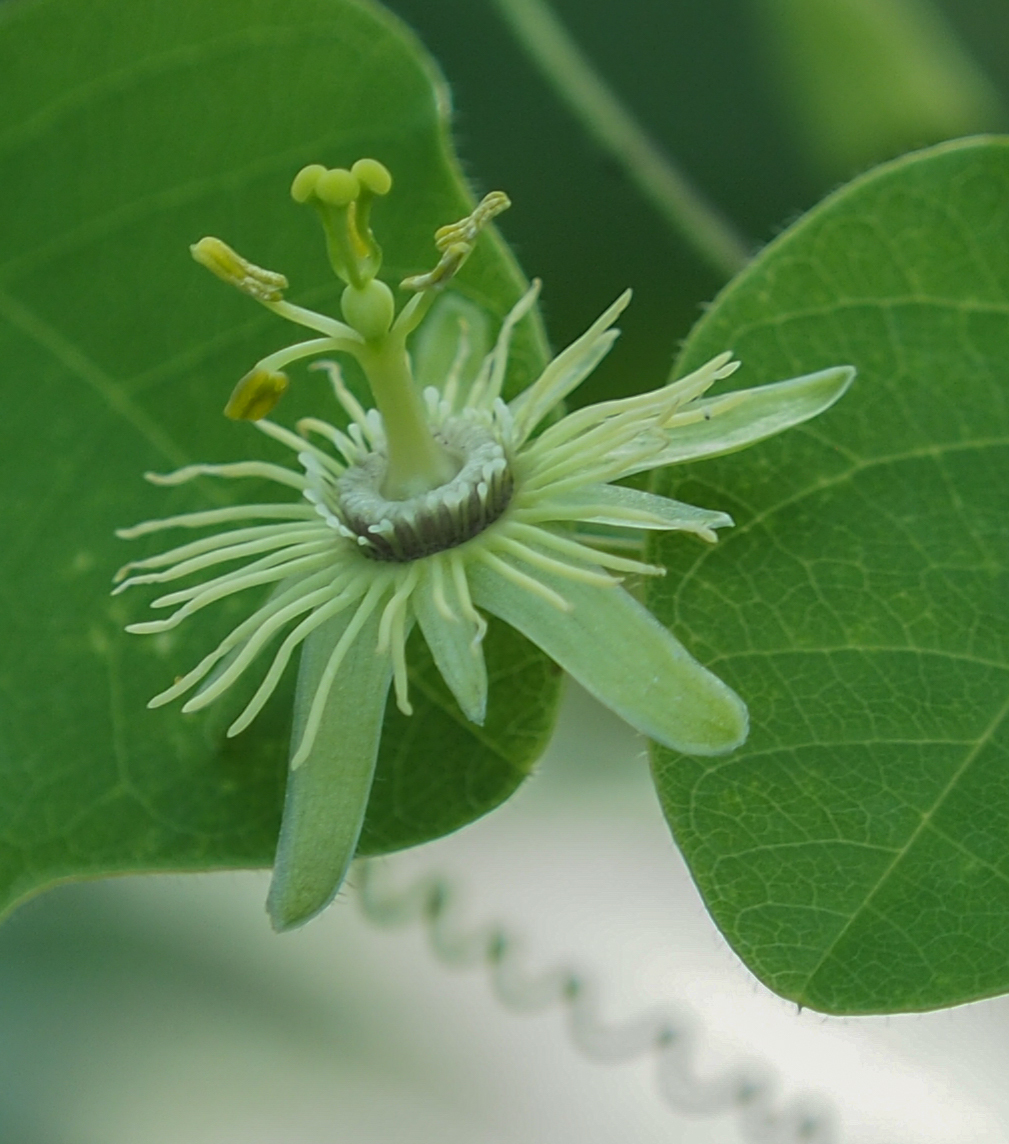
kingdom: Plantae
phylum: Tracheophyta
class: Magnoliopsida
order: Malpighiales
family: Passifloraceae
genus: Passiflora
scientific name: Passiflora lutea
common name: Yellow passionflower
